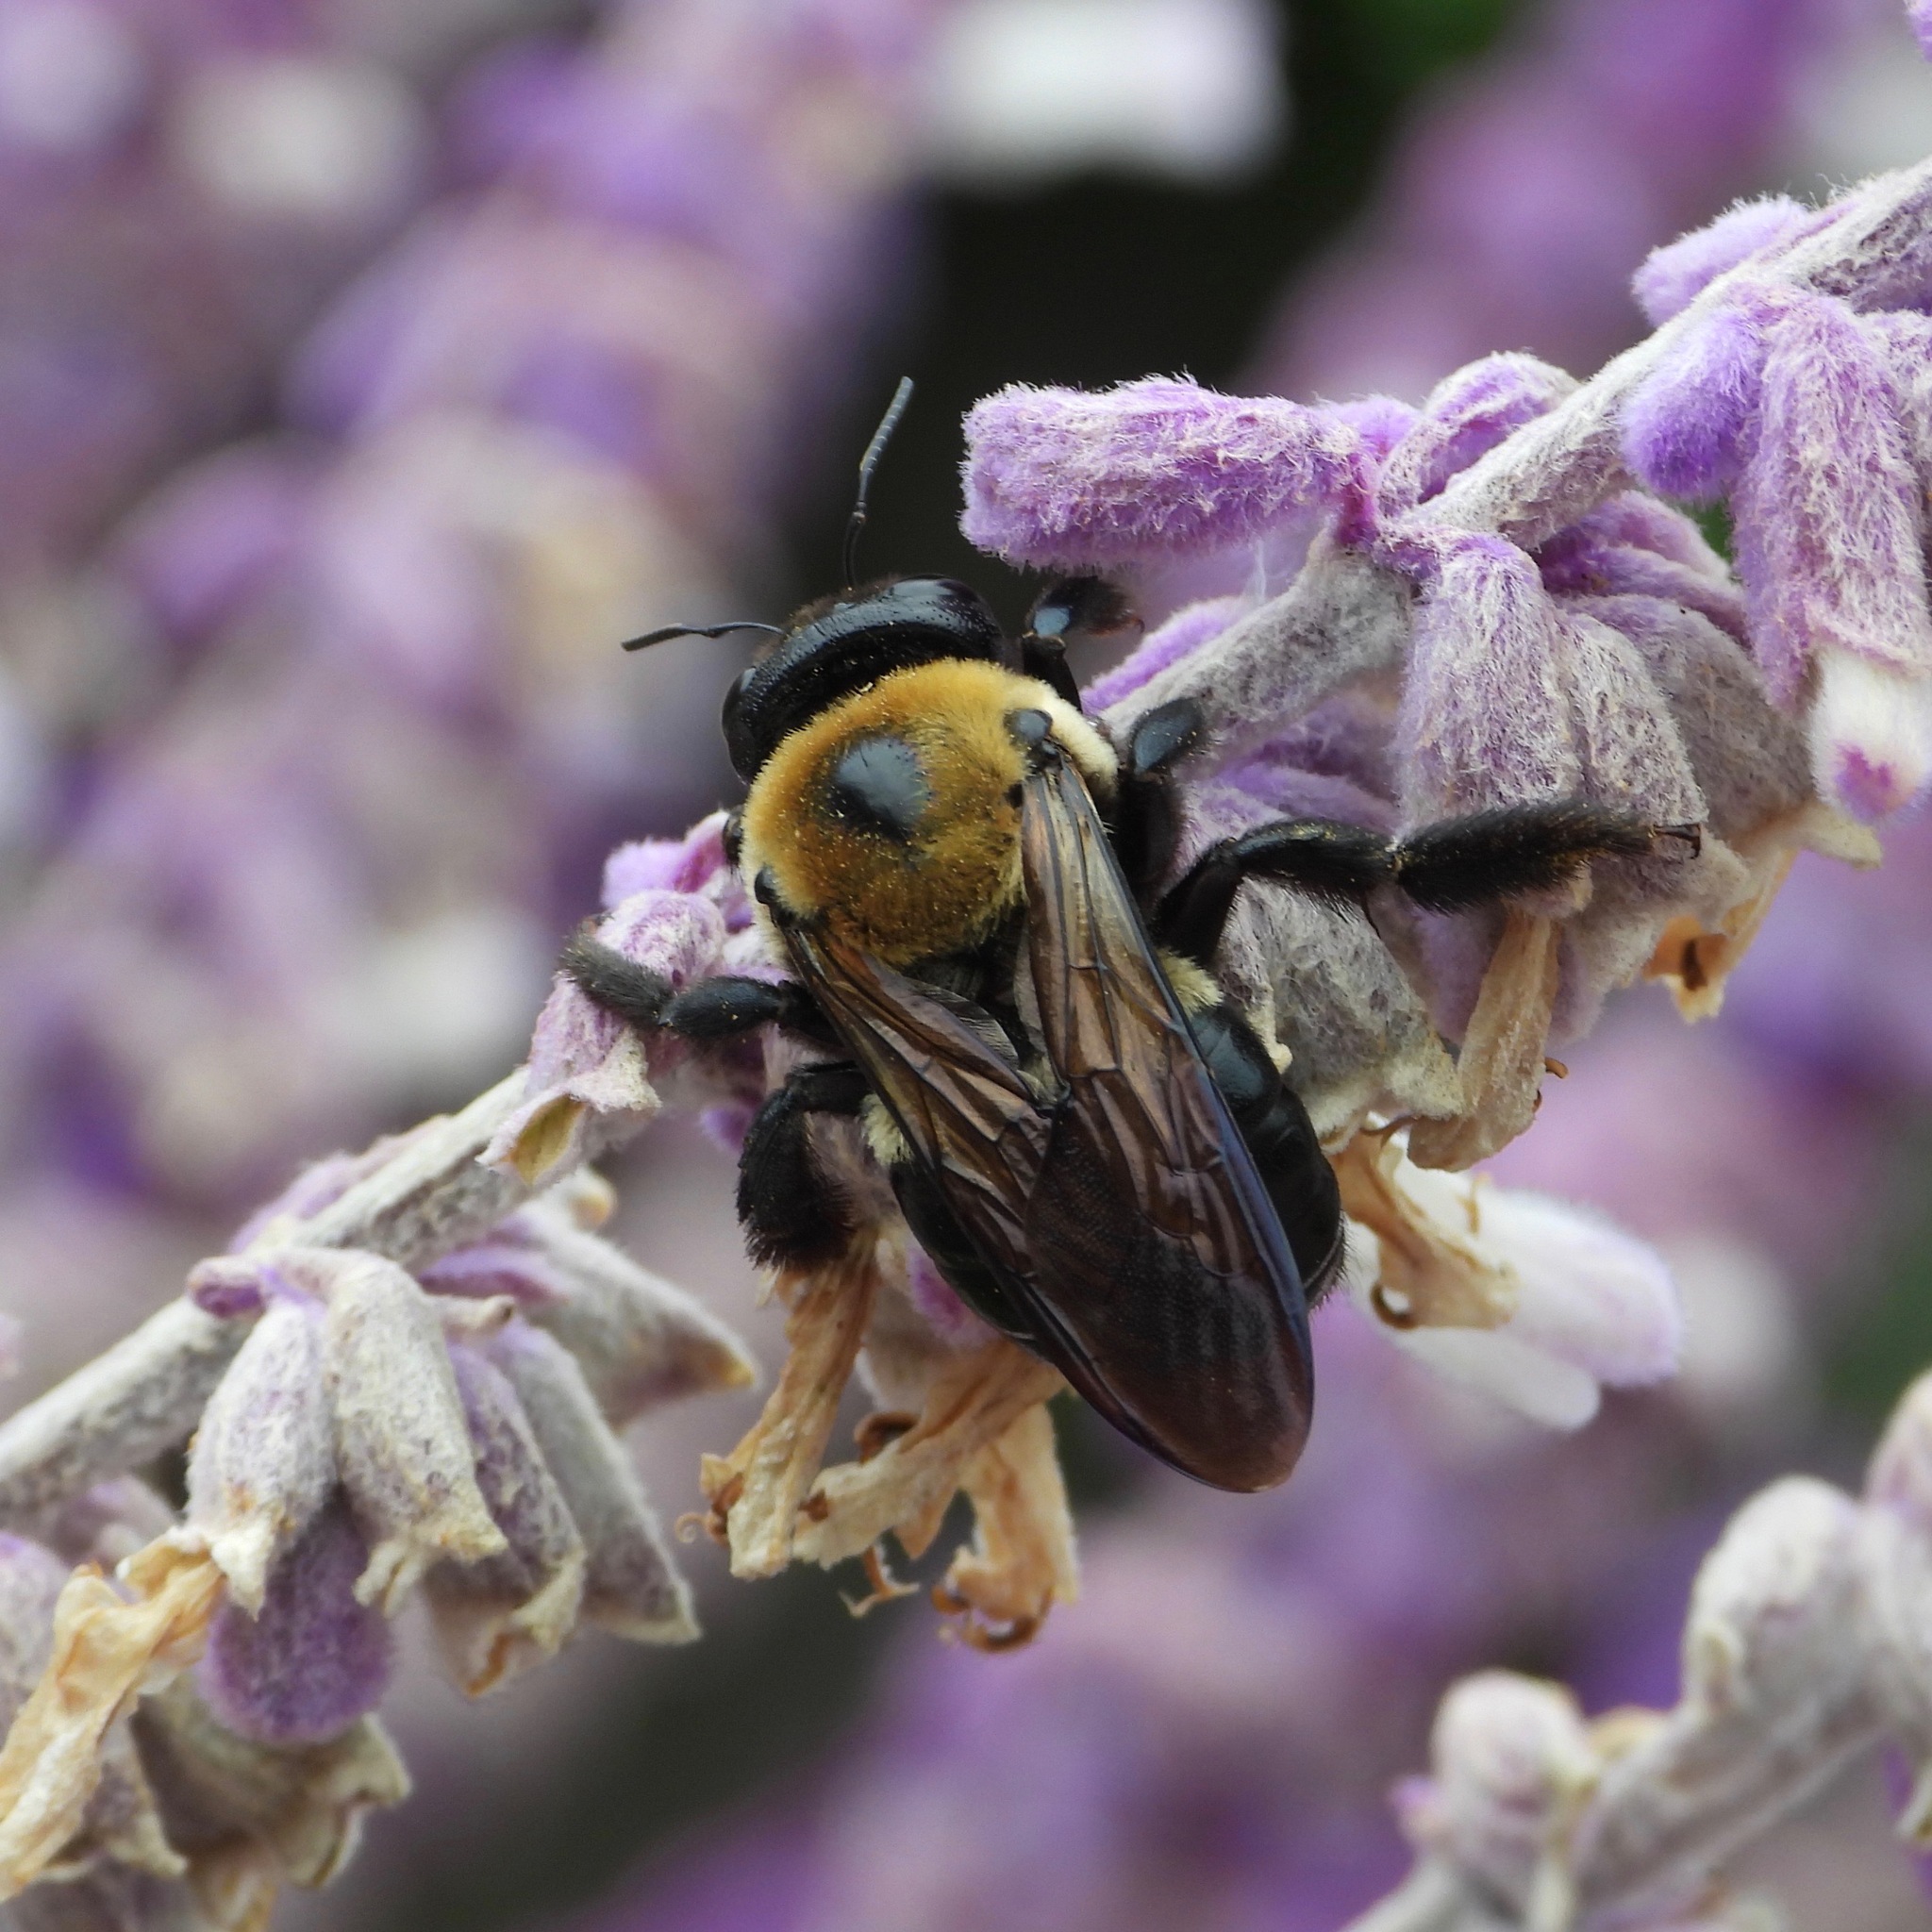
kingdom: Animalia
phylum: Arthropoda
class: Insecta
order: Hymenoptera
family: Apidae
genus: Xylocopa
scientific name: Xylocopa virginica
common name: Carpenter bee
